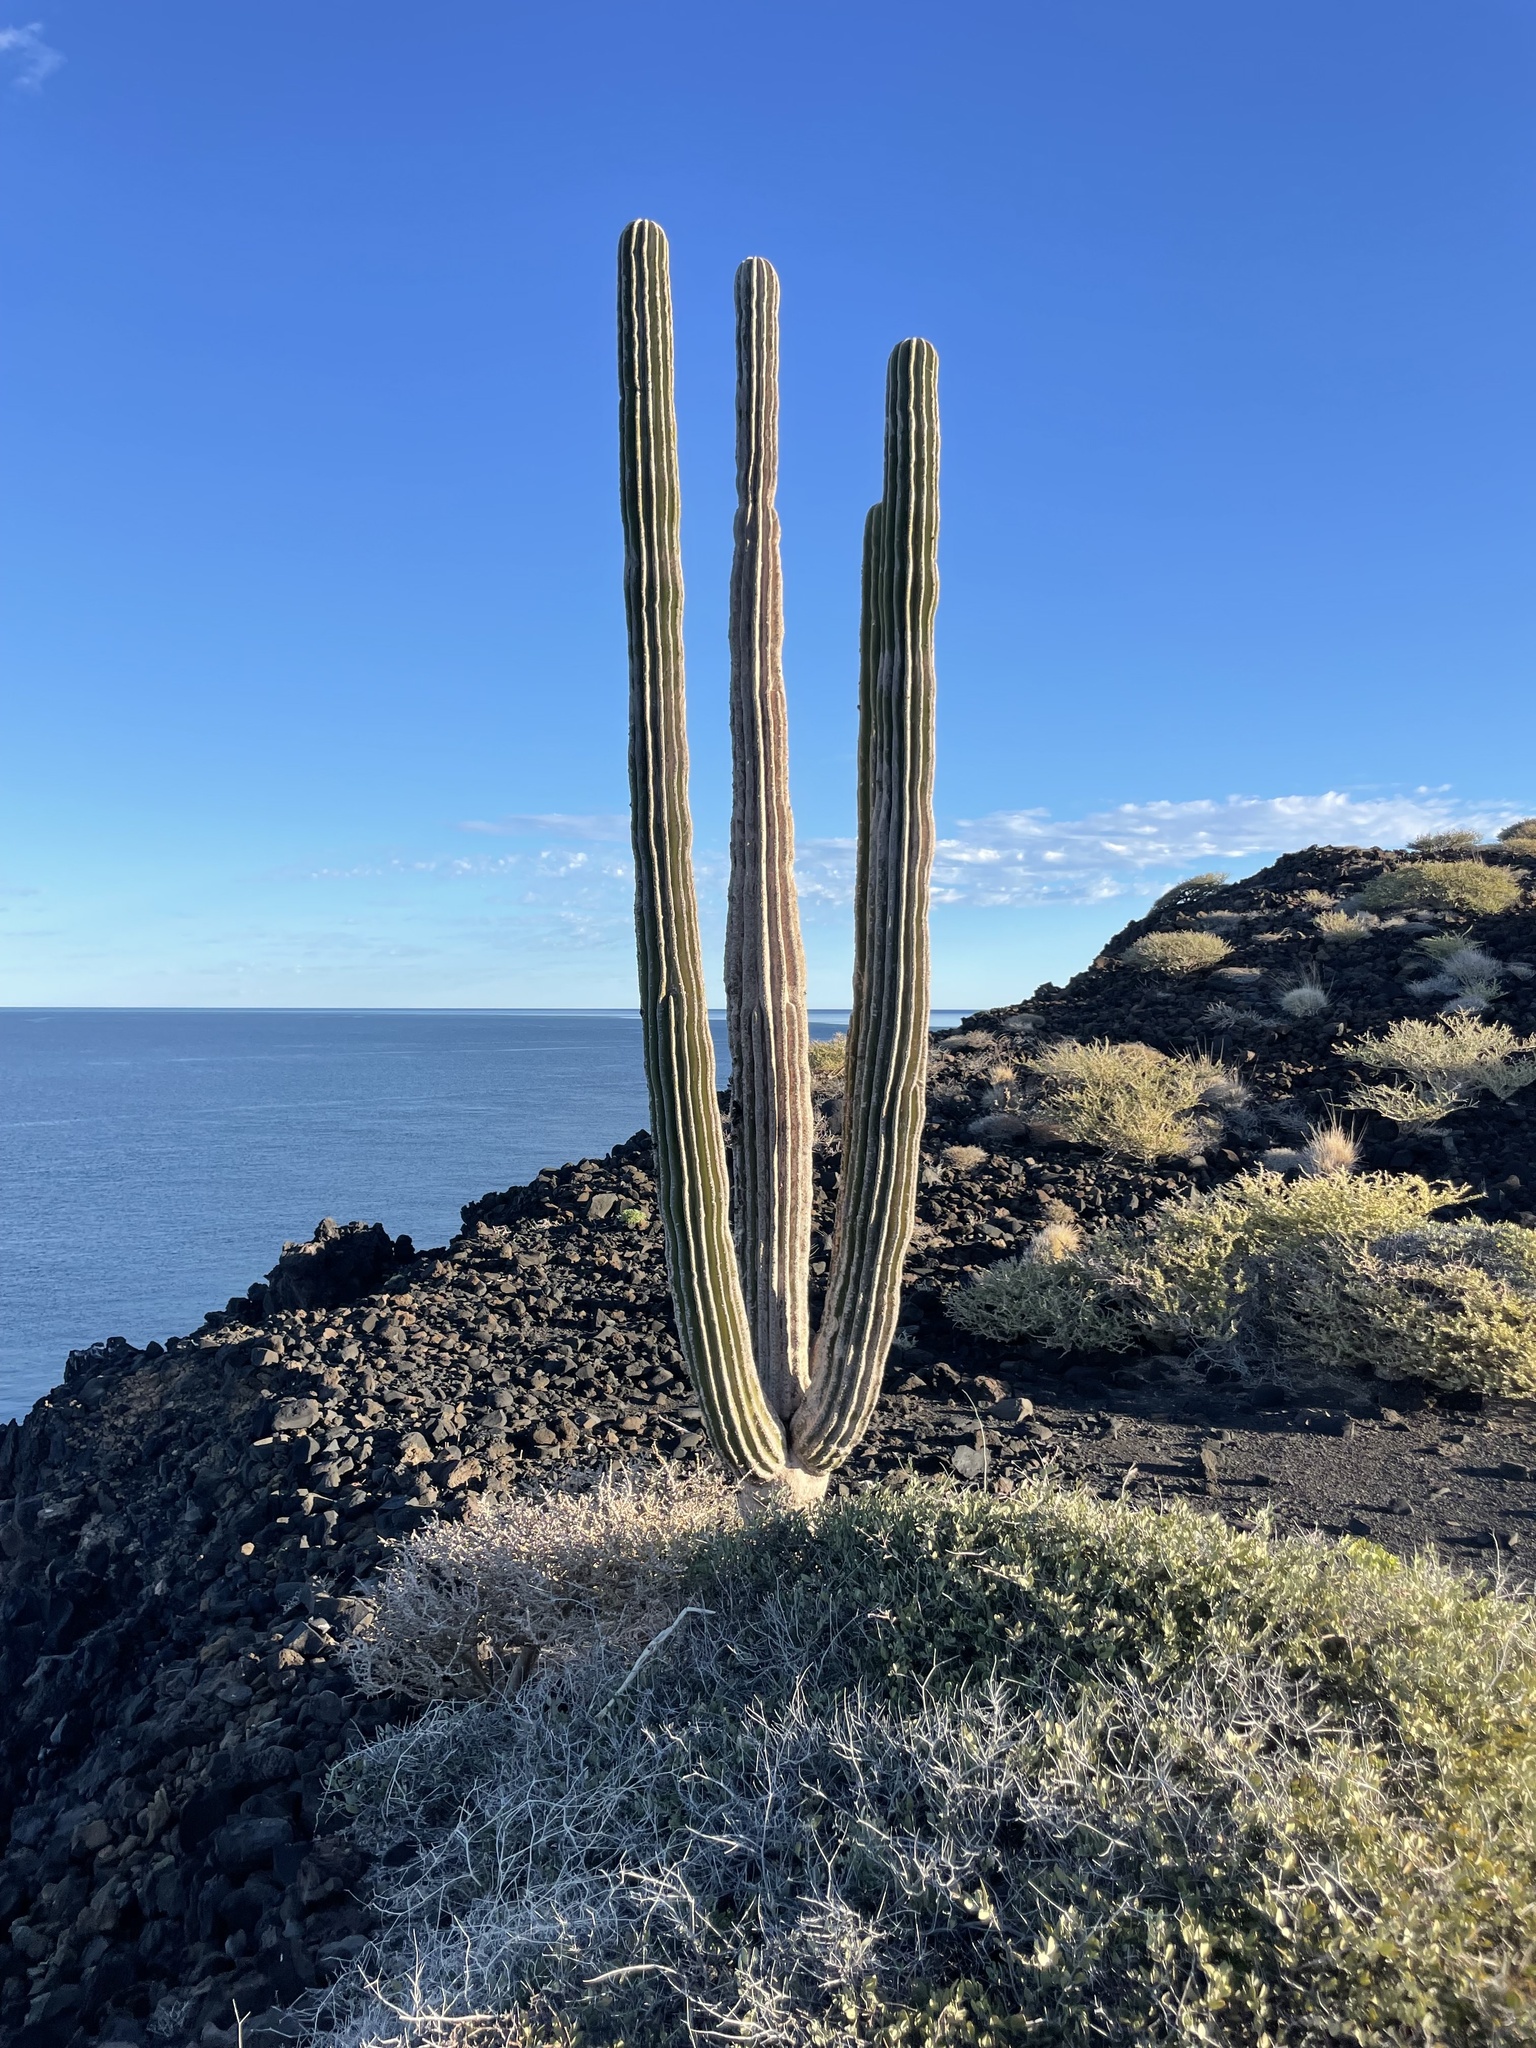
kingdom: Plantae
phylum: Tracheophyta
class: Magnoliopsida
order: Caryophyllales
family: Cactaceae
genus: Pachycereus
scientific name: Pachycereus pringlei
